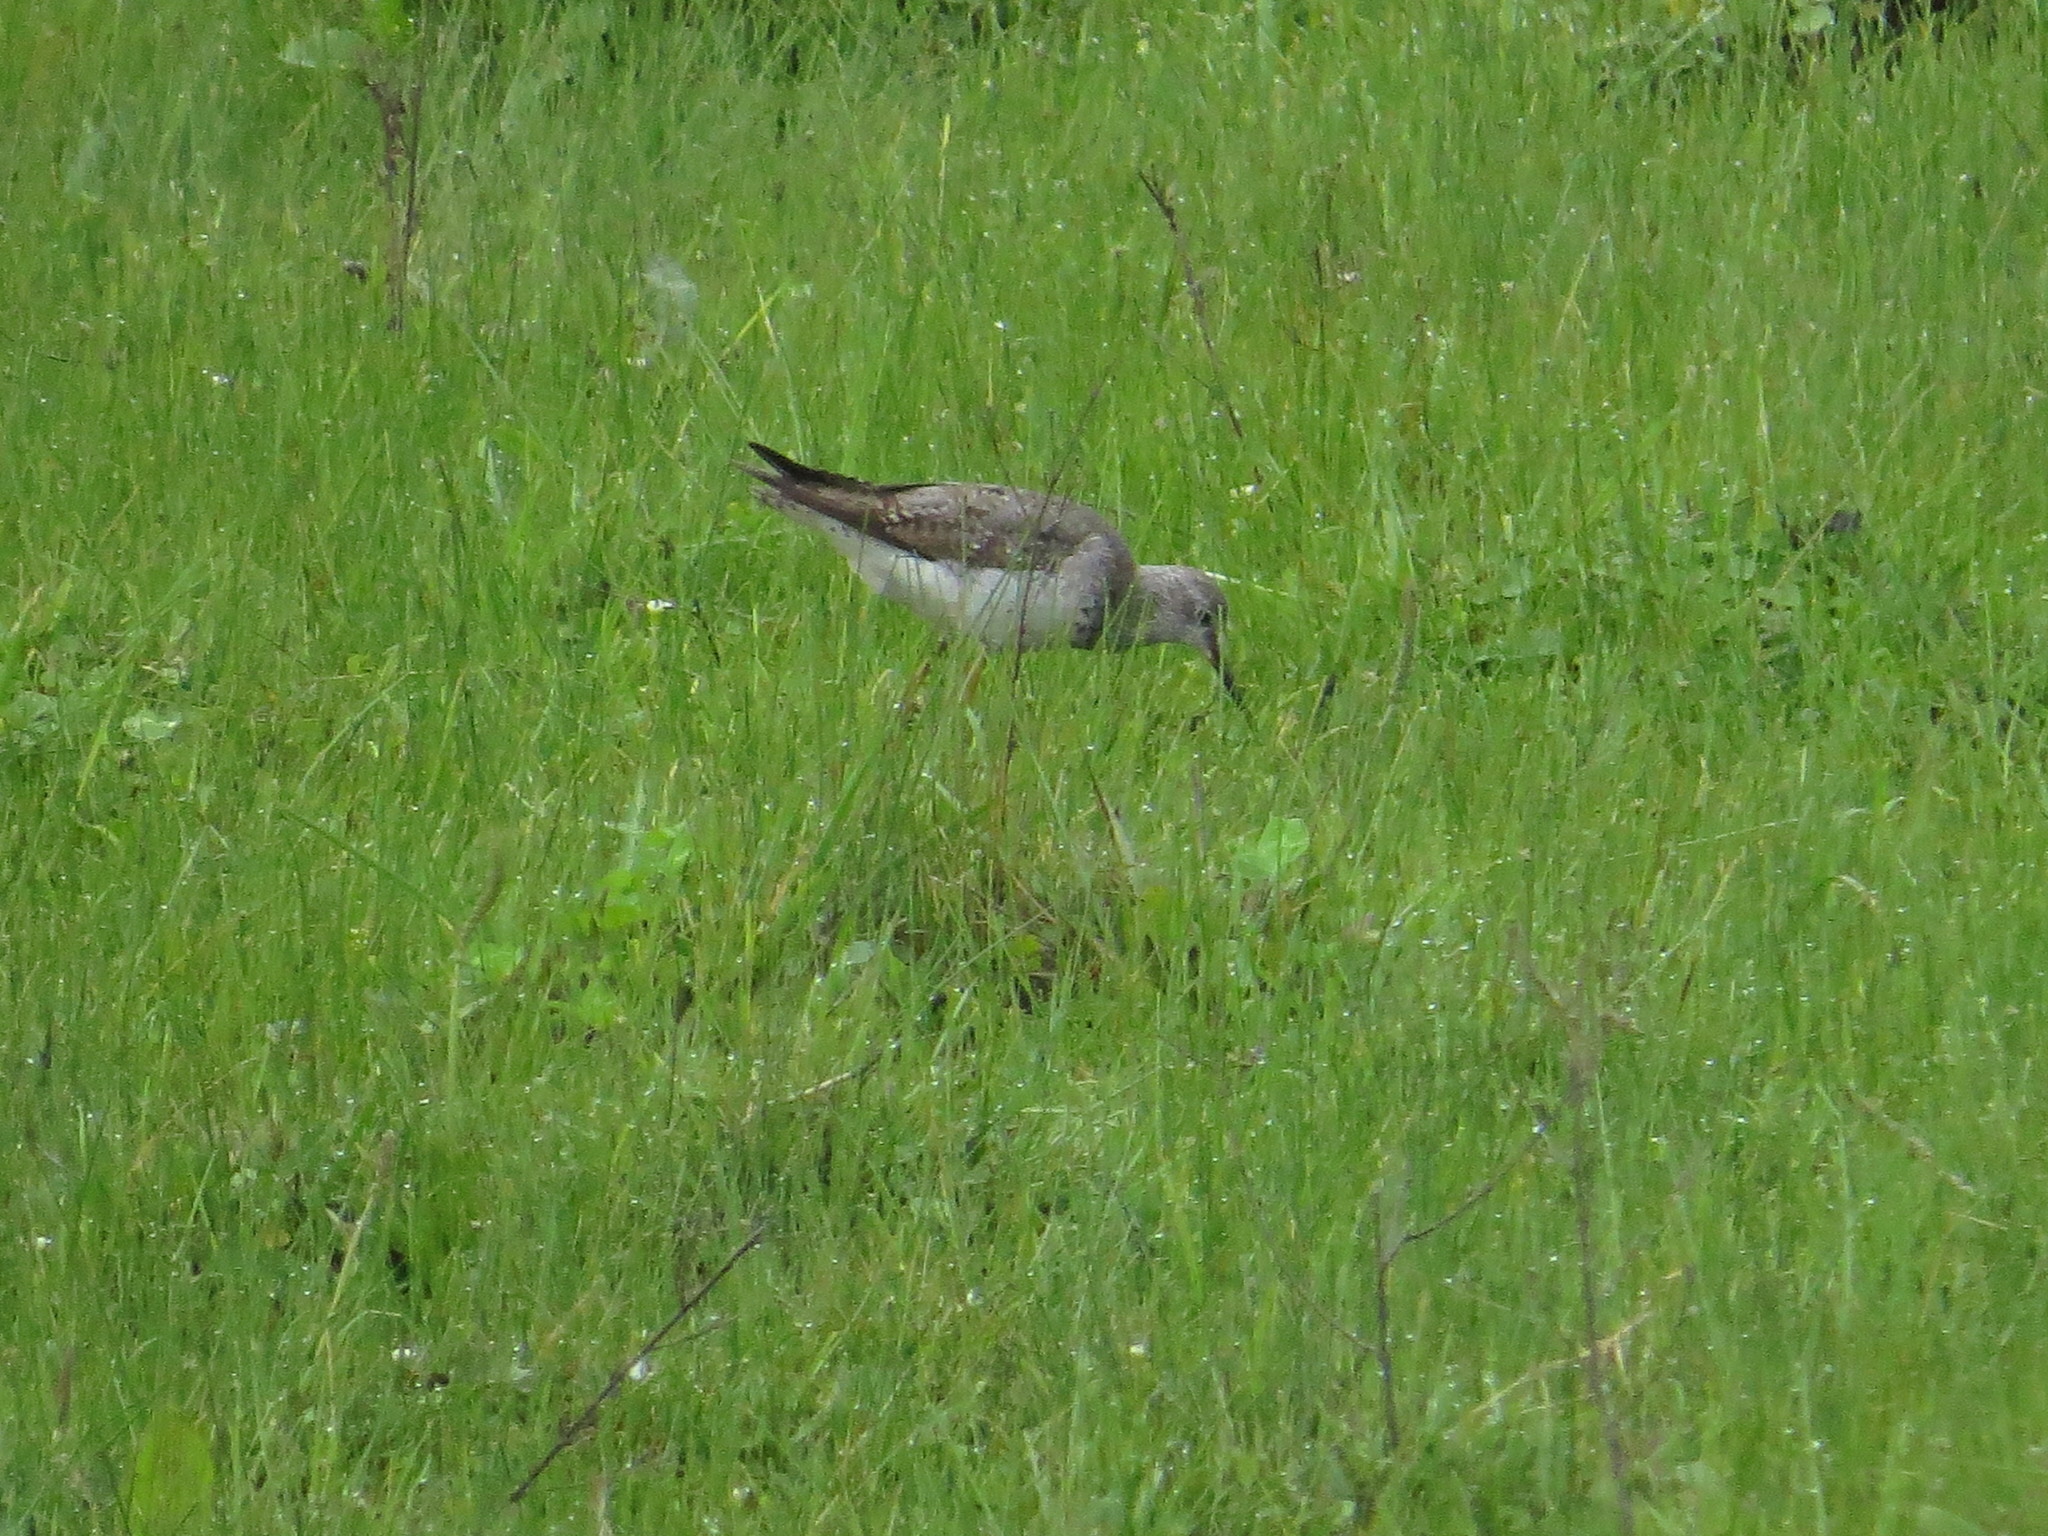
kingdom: Animalia
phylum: Chordata
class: Aves
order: Charadriiformes
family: Scolopacidae
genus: Tringa
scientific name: Tringa melanoleuca
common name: Greater yellowlegs
